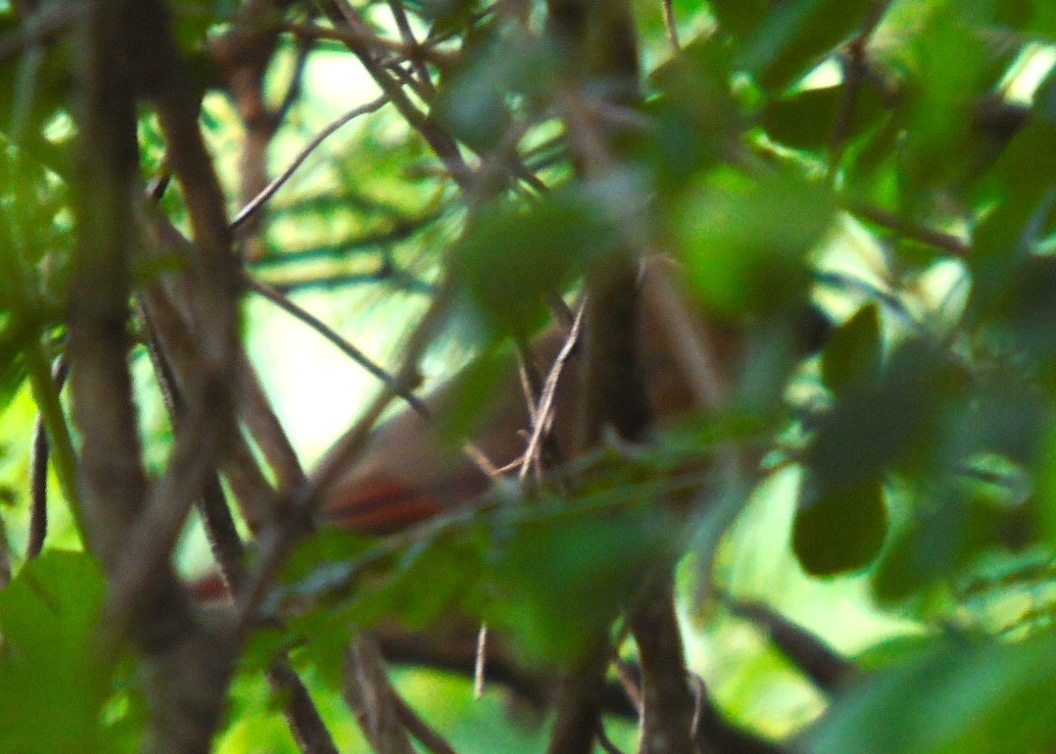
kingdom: Animalia
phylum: Chordata
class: Aves
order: Passeriformes
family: Cardinalidae
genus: Cardinalis
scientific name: Cardinalis
